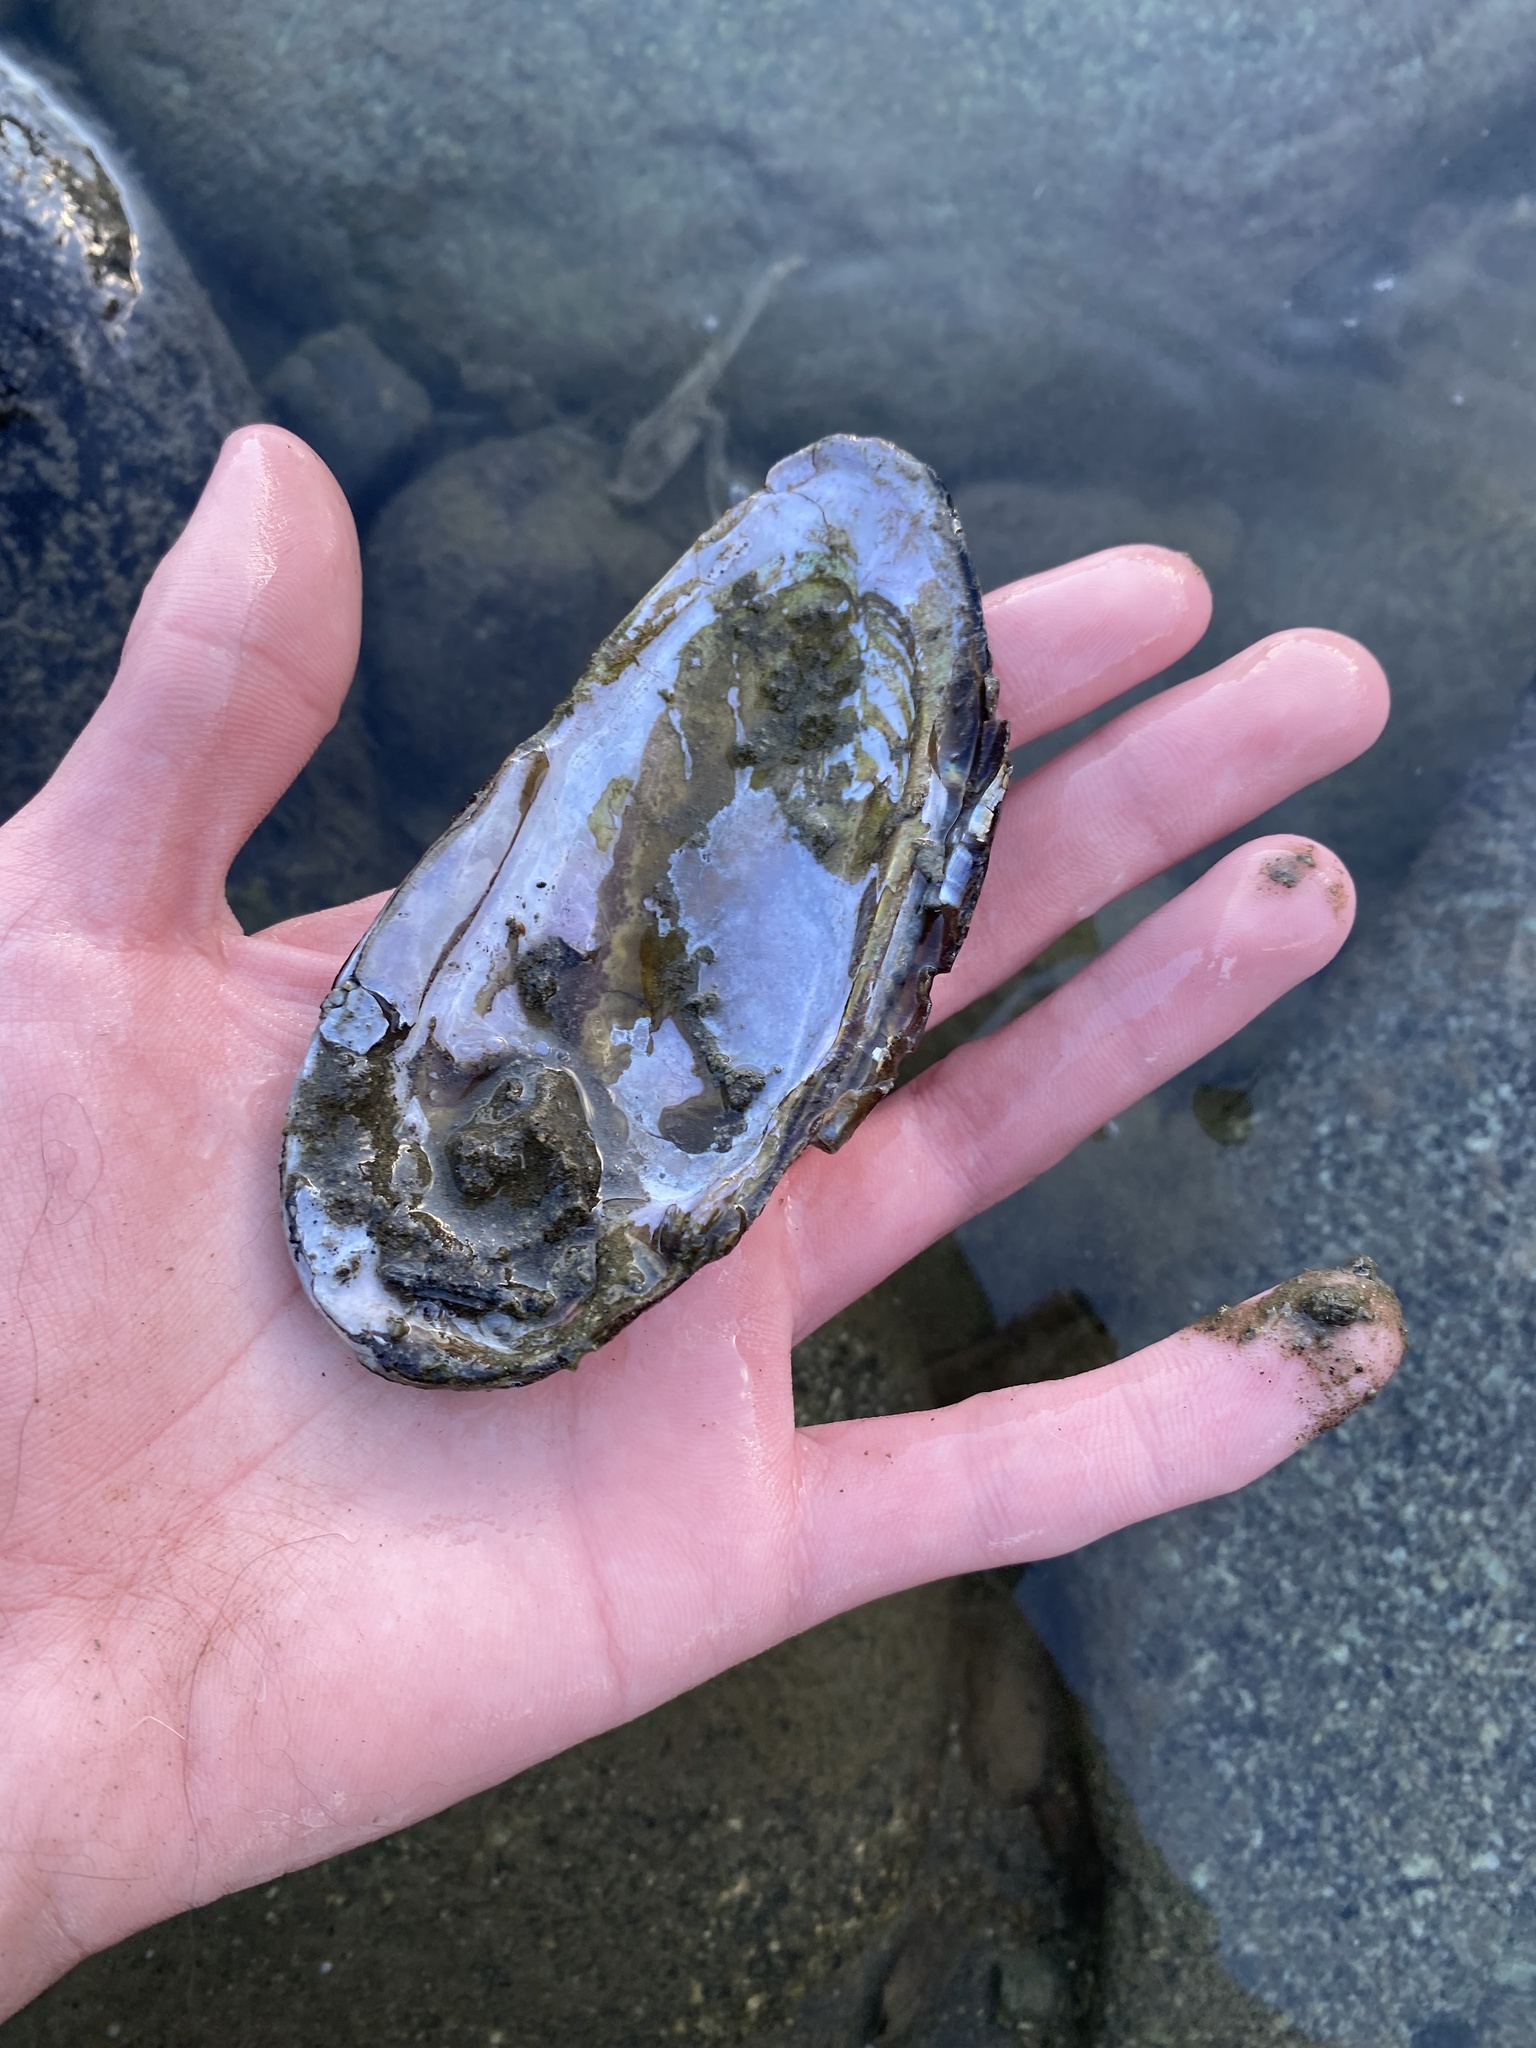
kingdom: Animalia
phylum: Mollusca
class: Bivalvia
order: Unionida
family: Margaritiferidae
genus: Margaritifera
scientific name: Margaritifera falcata
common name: Western pearlshell
